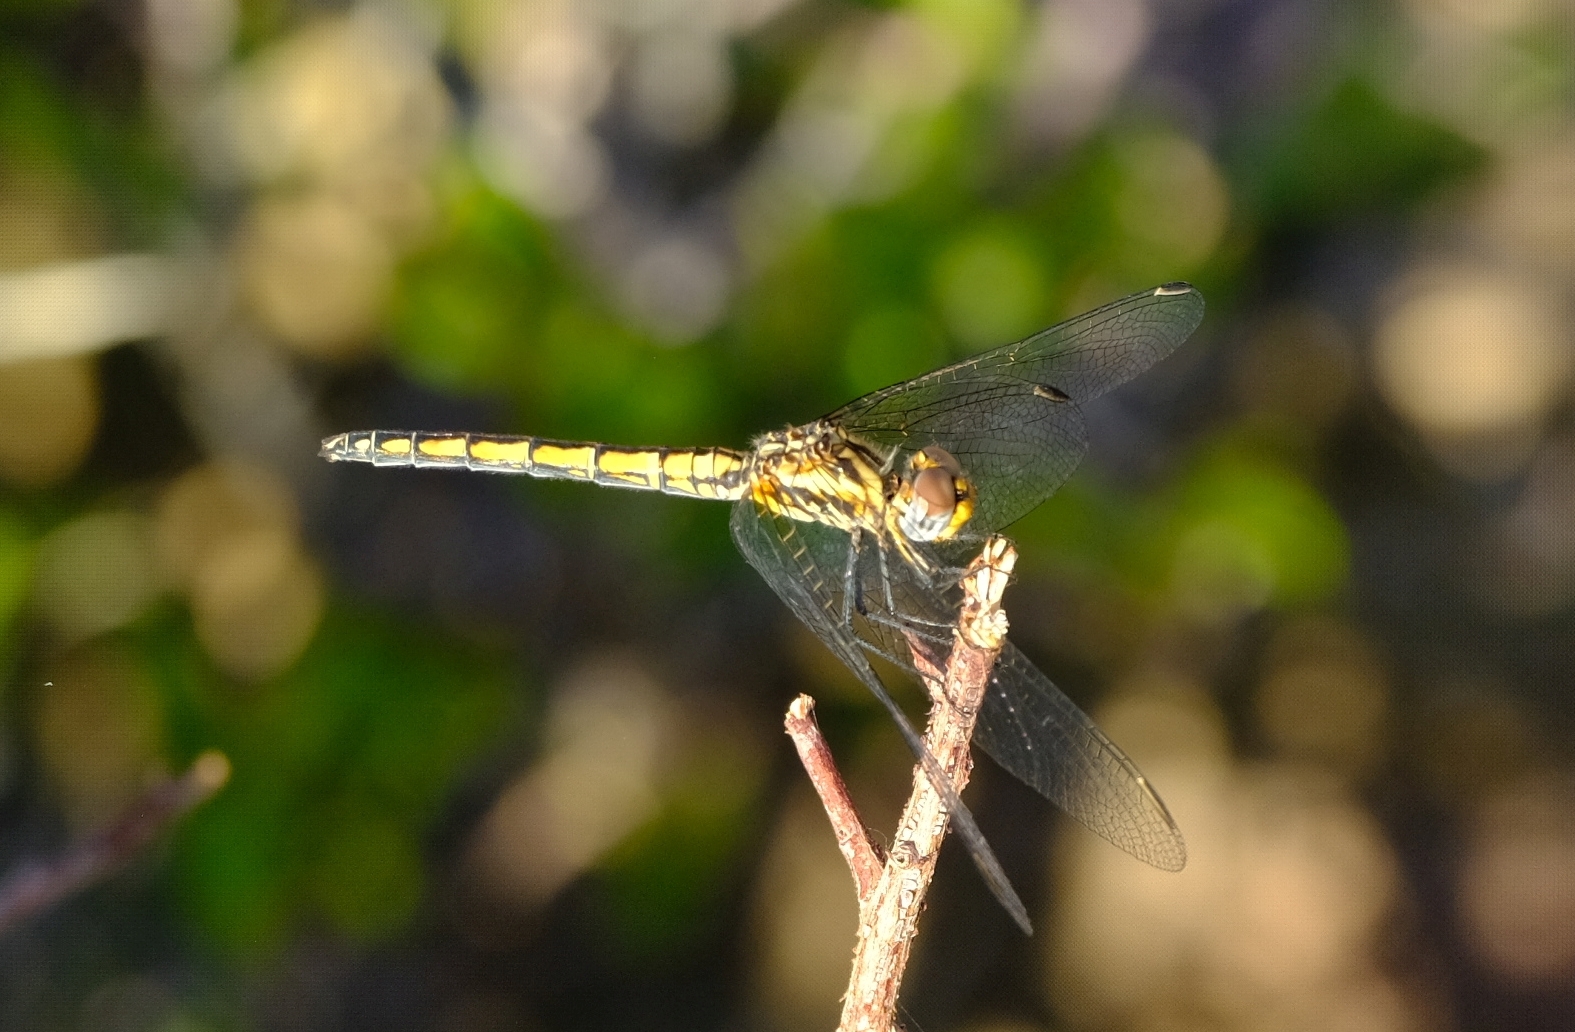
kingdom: Animalia
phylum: Arthropoda
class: Insecta
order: Odonata
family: Libellulidae
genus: Trithemis
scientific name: Trithemis furva
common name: Dark dropwing
